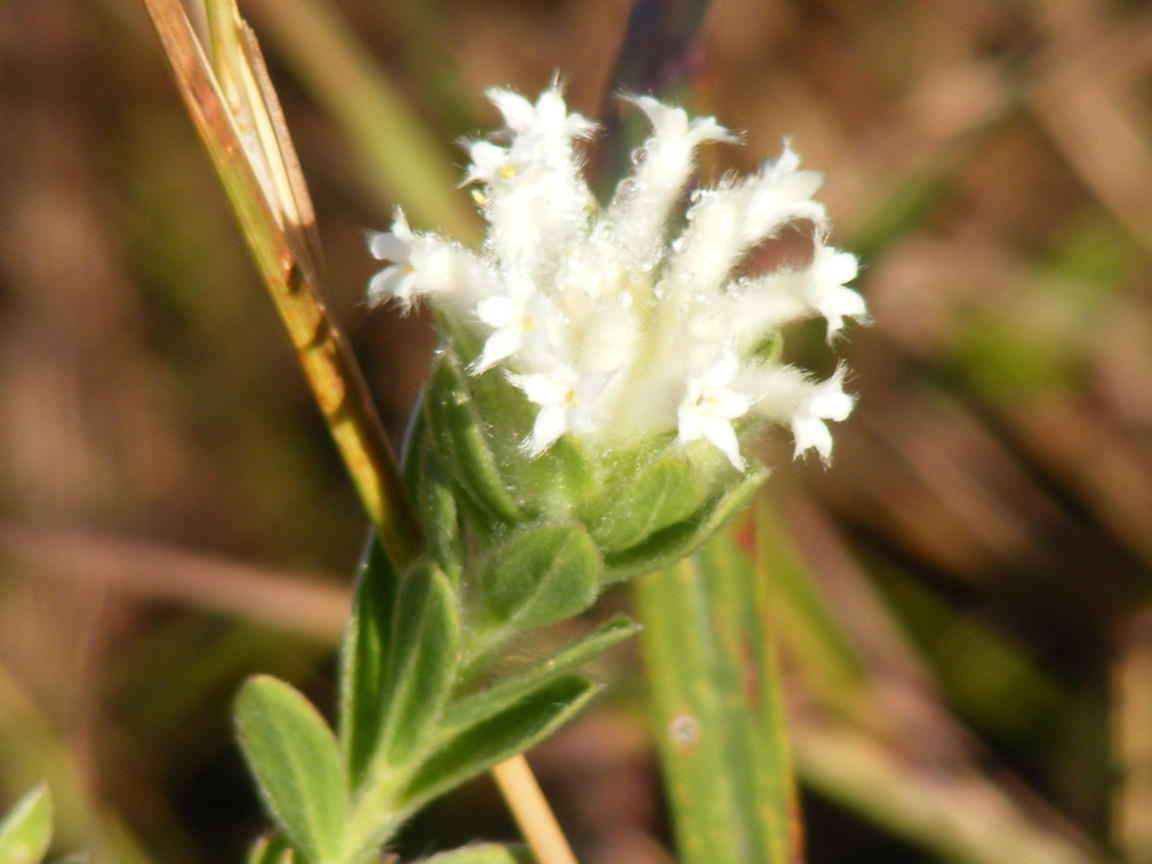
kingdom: Plantae
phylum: Tracheophyta
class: Magnoliopsida
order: Malvales
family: Thymelaeaceae
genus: Gnidia
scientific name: Gnidia calocephala
